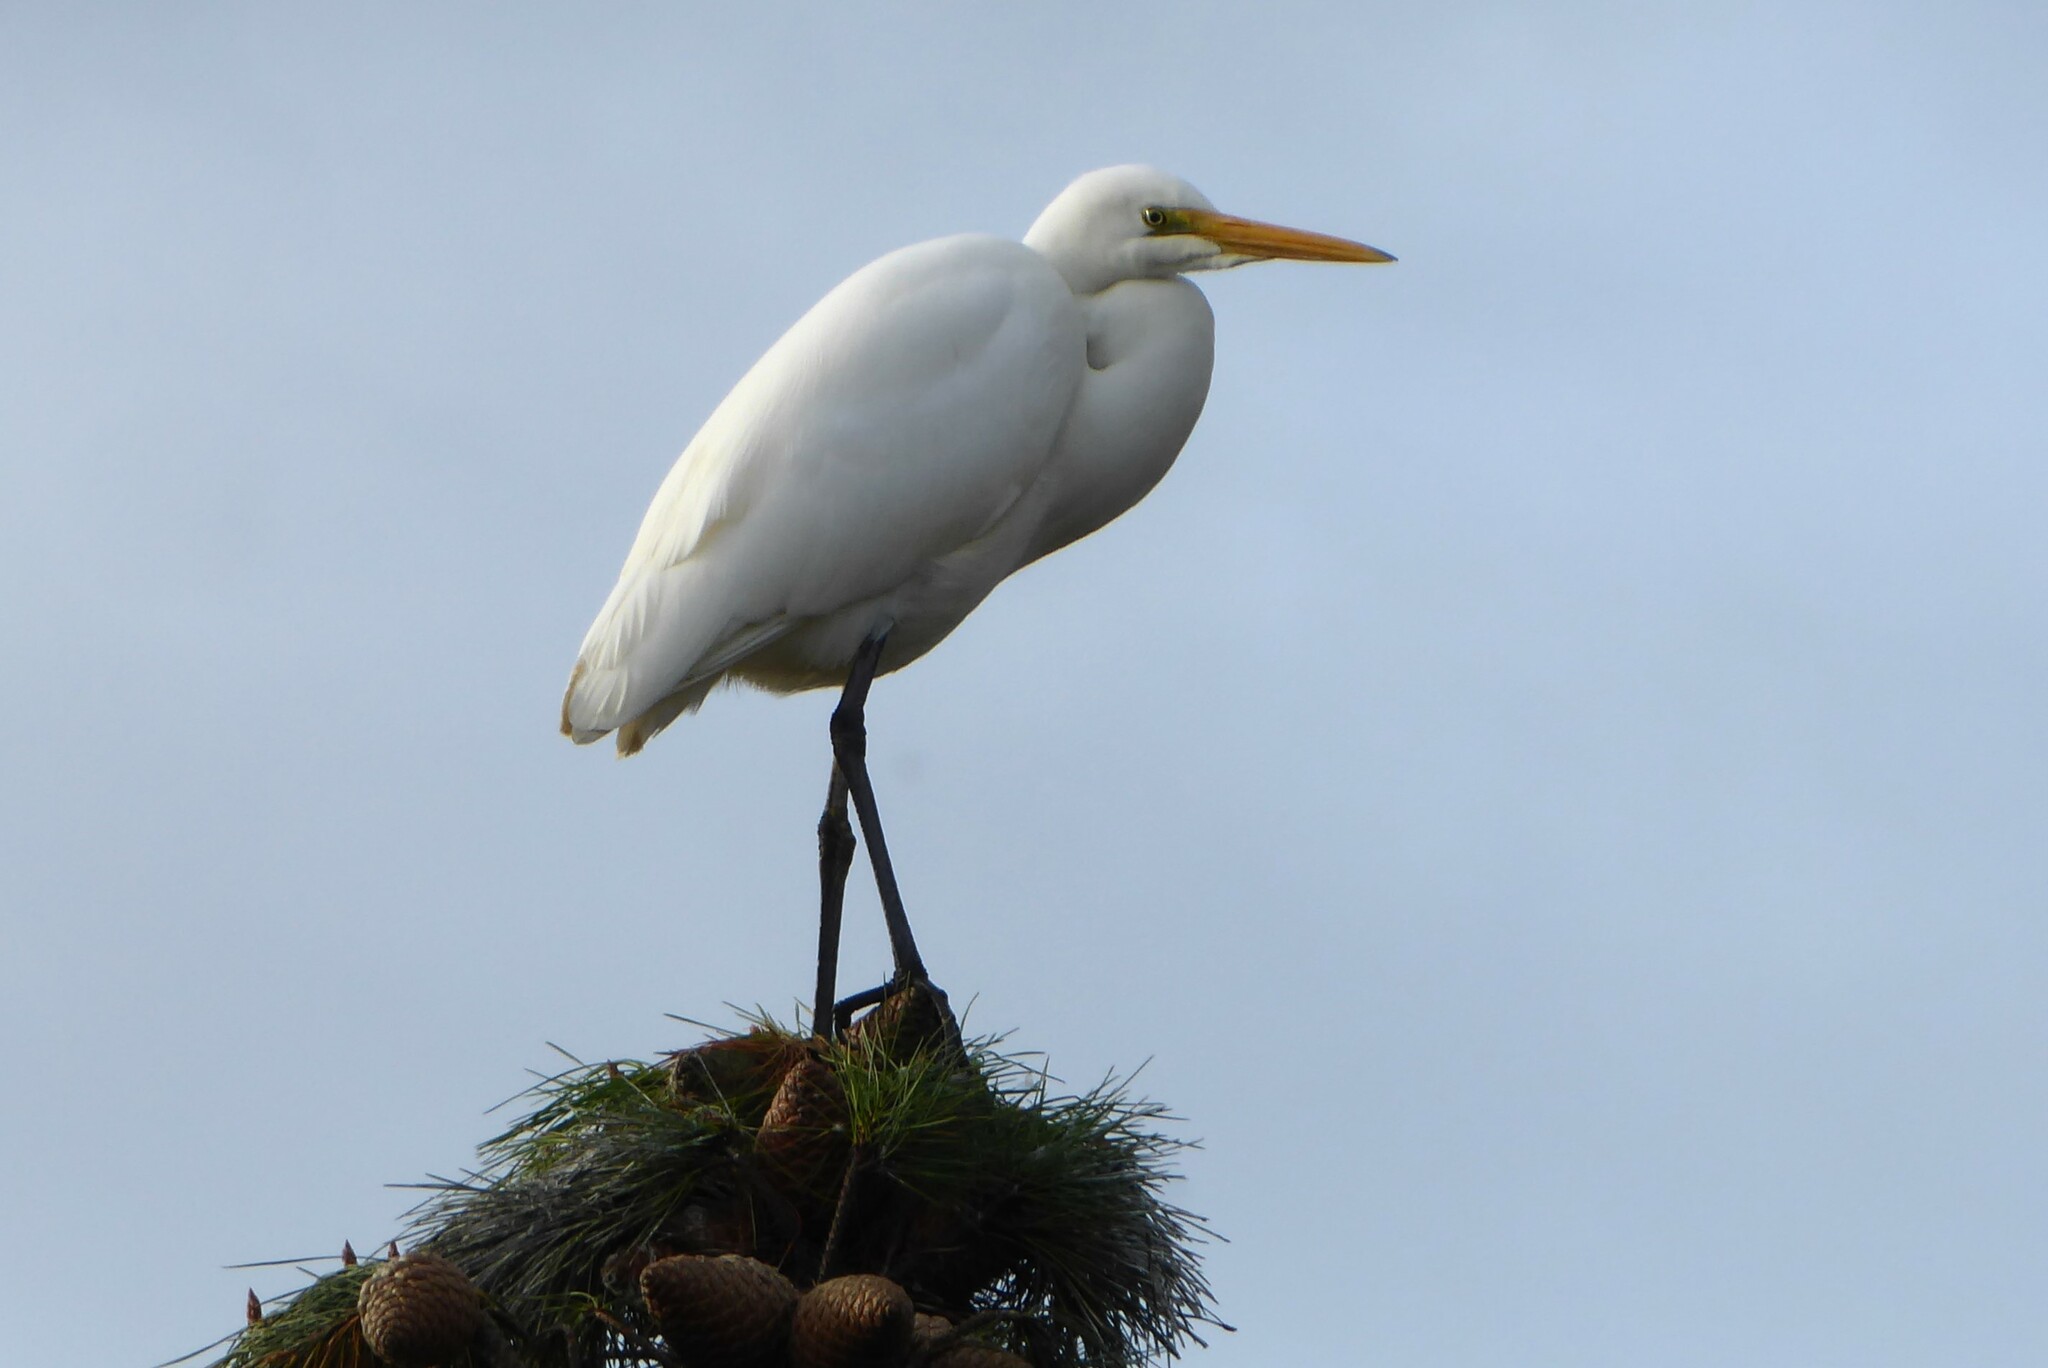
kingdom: Animalia
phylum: Chordata
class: Aves
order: Pelecaniformes
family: Ardeidae
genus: Ardea
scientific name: Ardea modesta
